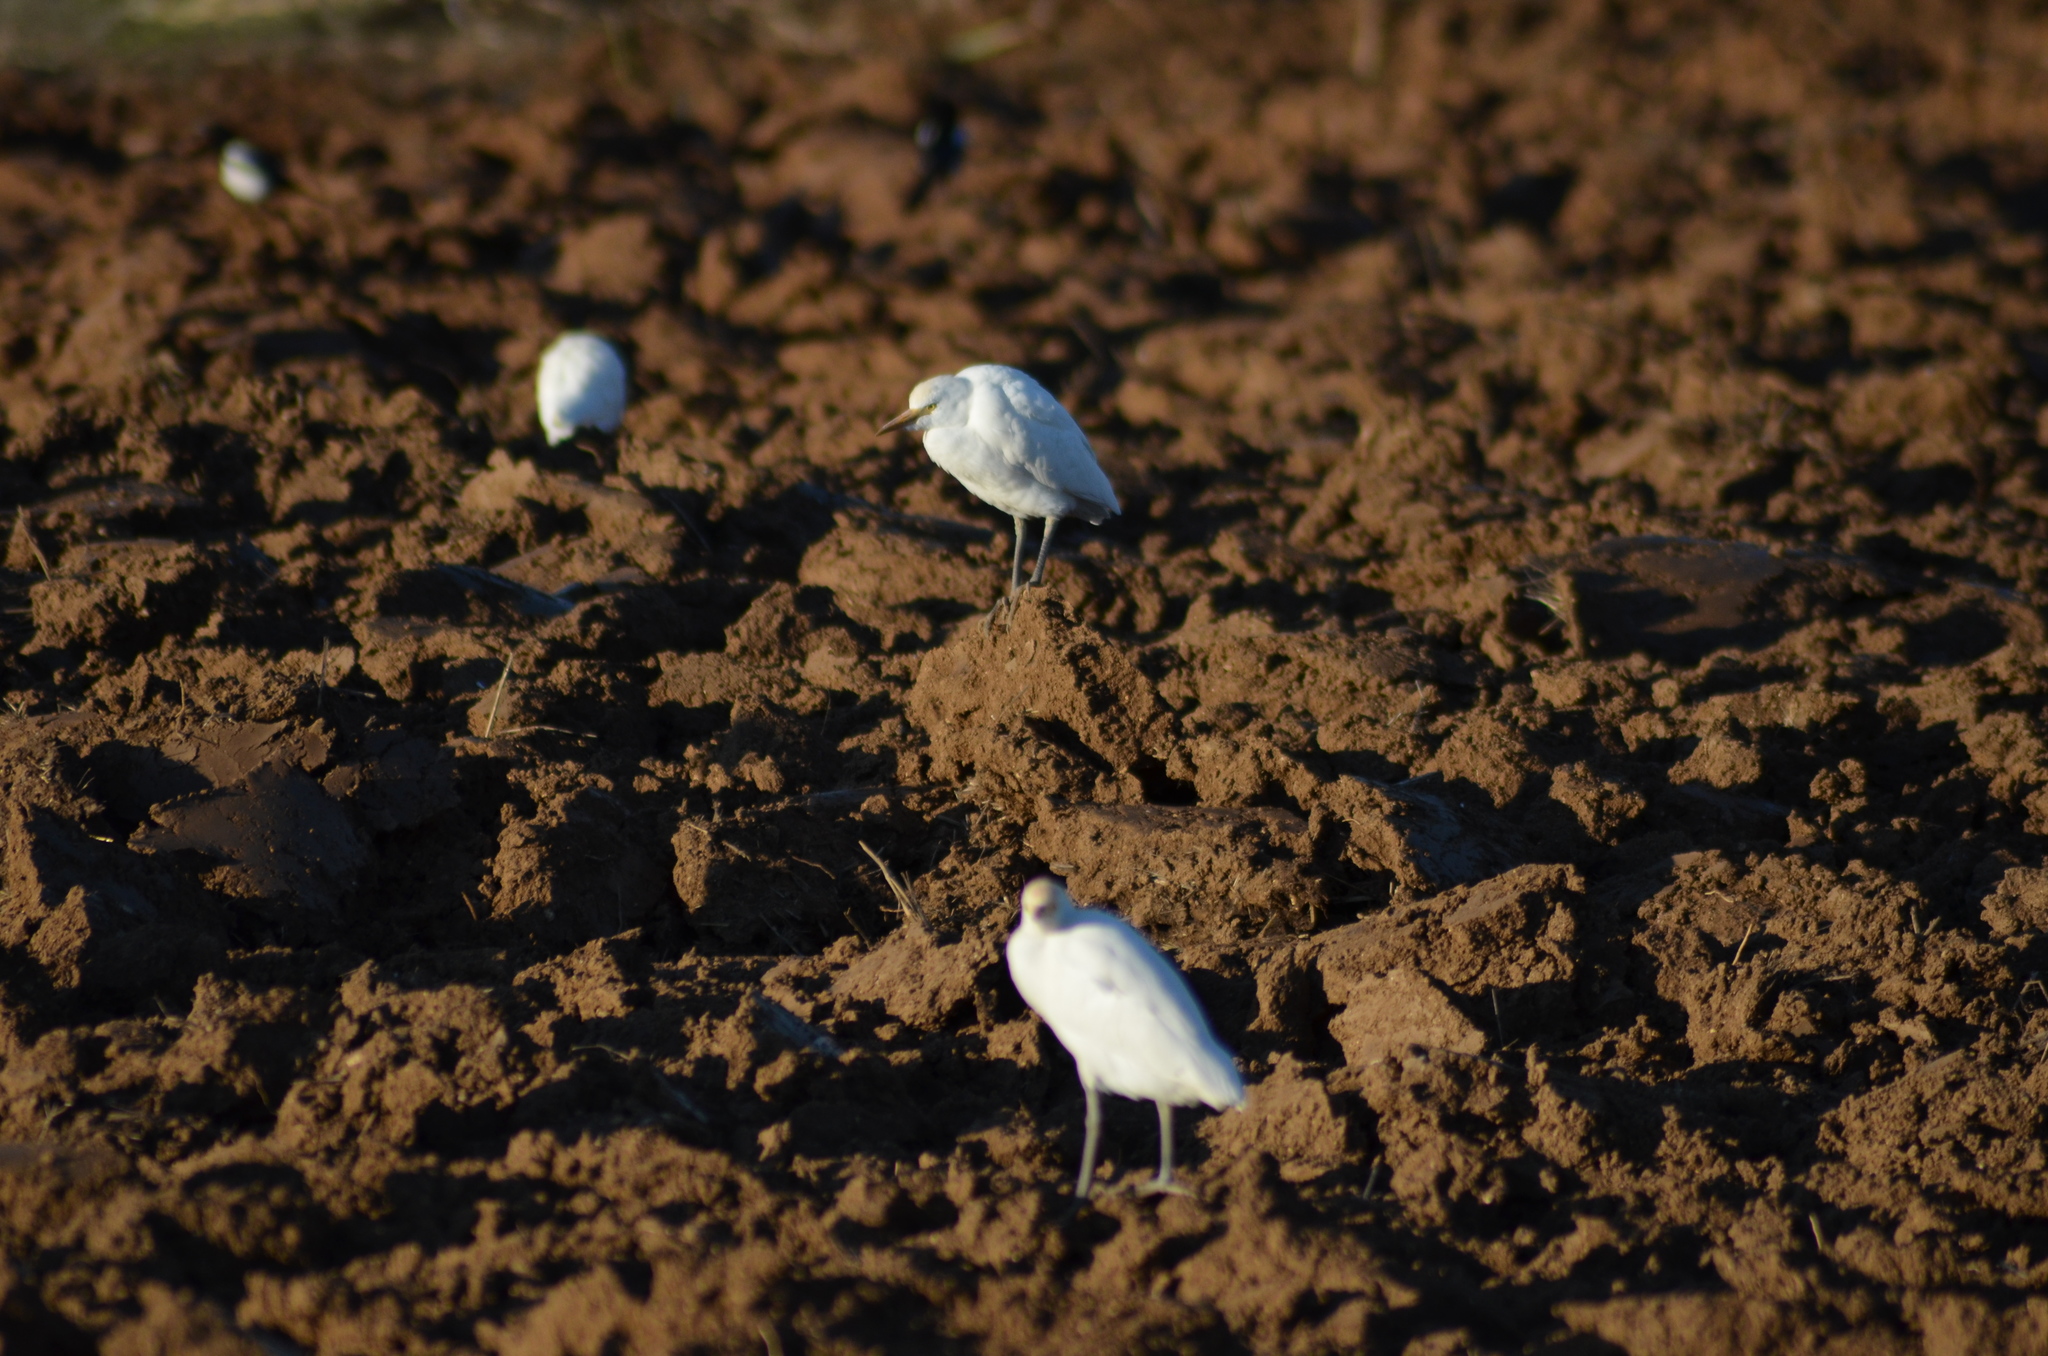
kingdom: Animalia
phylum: Chordata
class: Aves
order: Pelecaniformes
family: Ardeidae
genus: Bubulcus
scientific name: Bubulcus ibis
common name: Cattle egret
